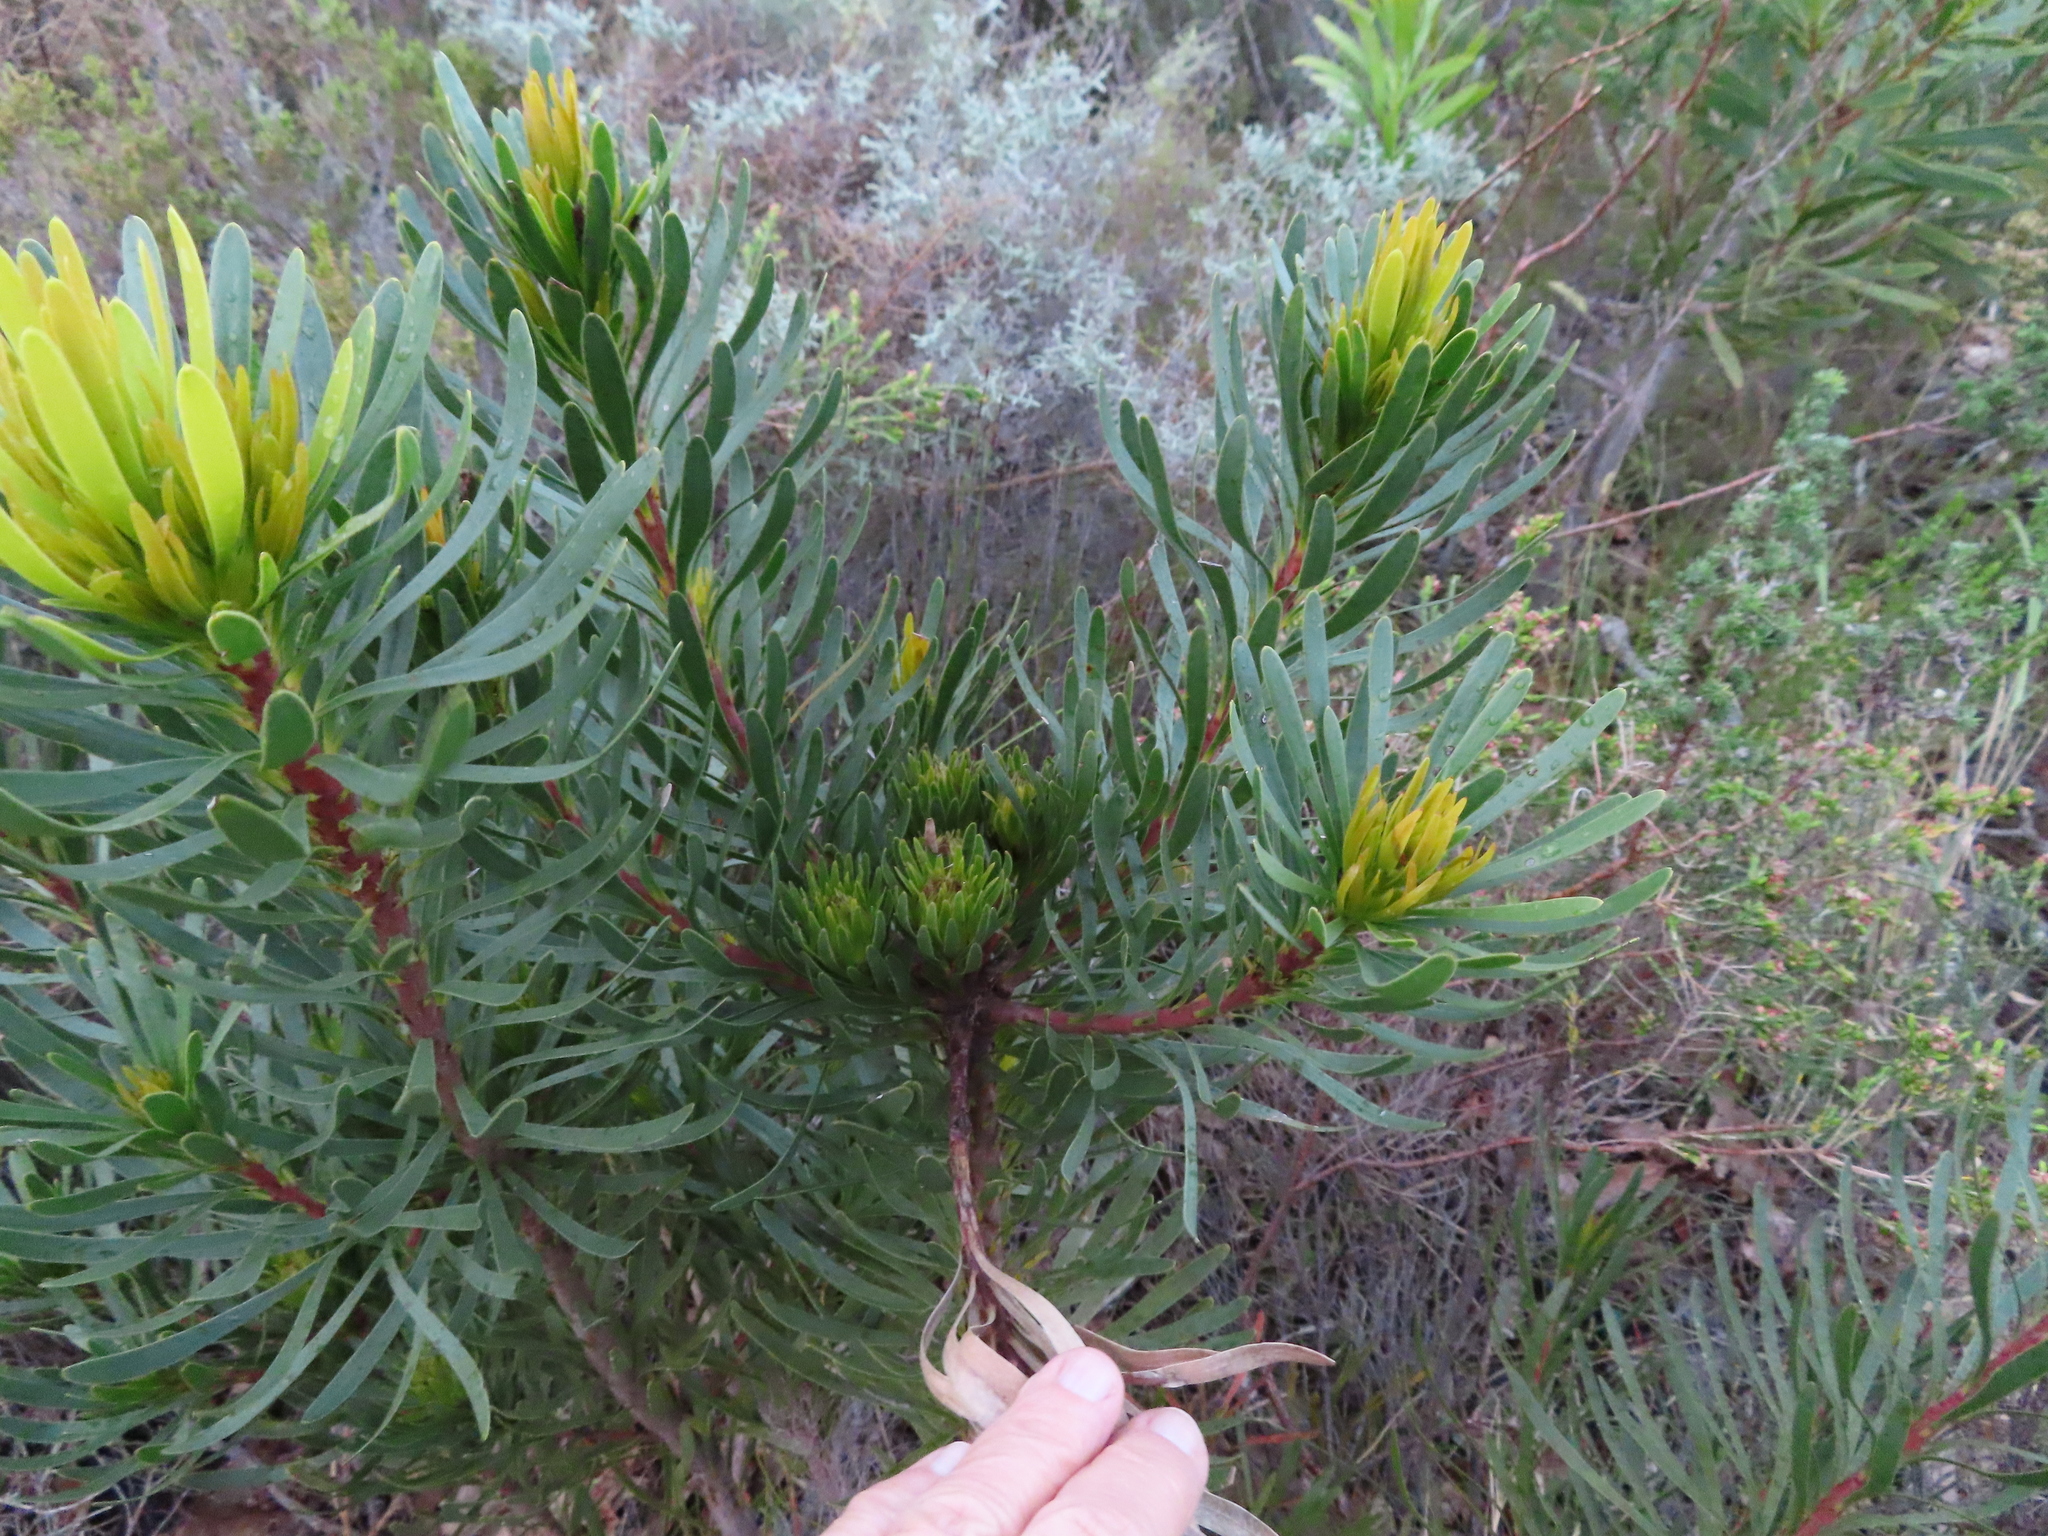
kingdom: Plantae
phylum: Tracheophyta
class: Magnoliopsida
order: Proteales
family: Proteaceae
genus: Aulax
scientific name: Aulax umbellata
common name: Broad-leaf featherbush
